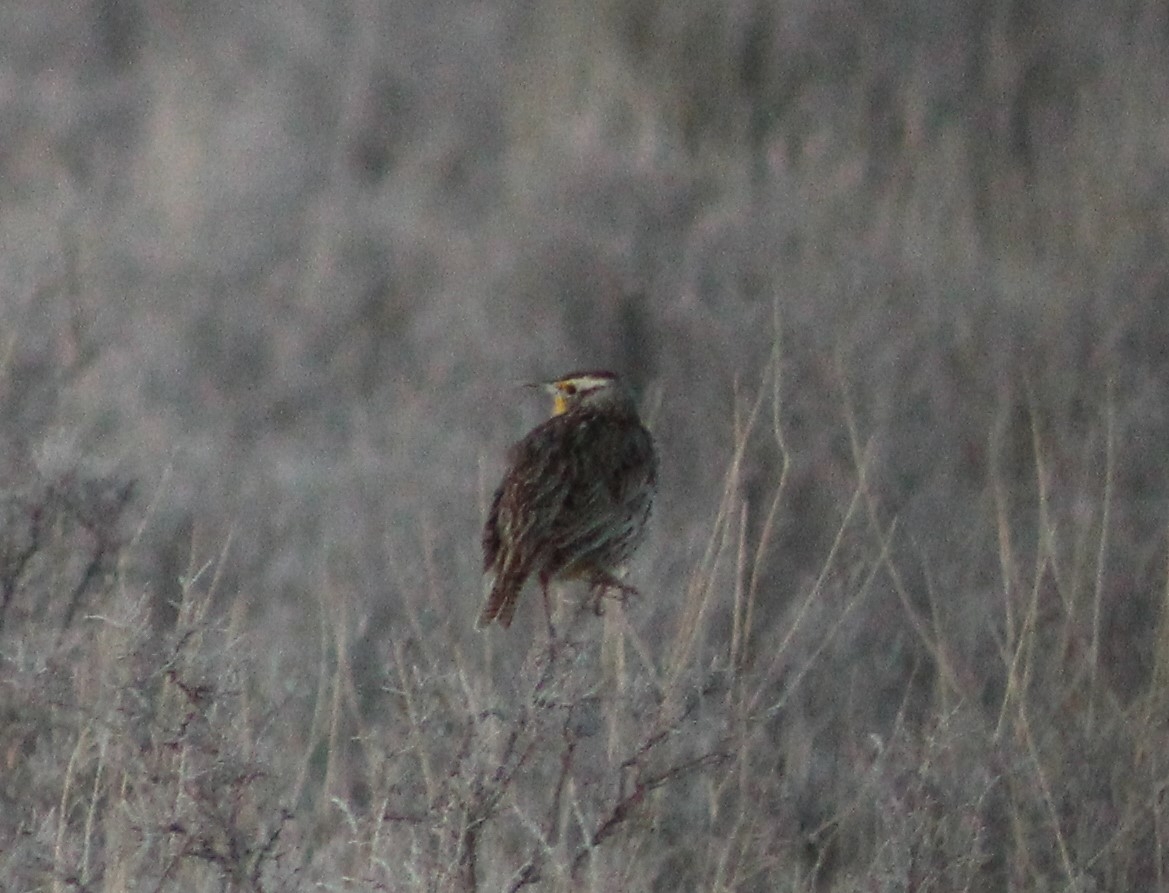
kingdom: Animalia
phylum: Chordata
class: Aves
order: Passeriformes
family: Icteridae
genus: Sturnella
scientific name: Sturnella neglecta
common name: Western meadowlark
